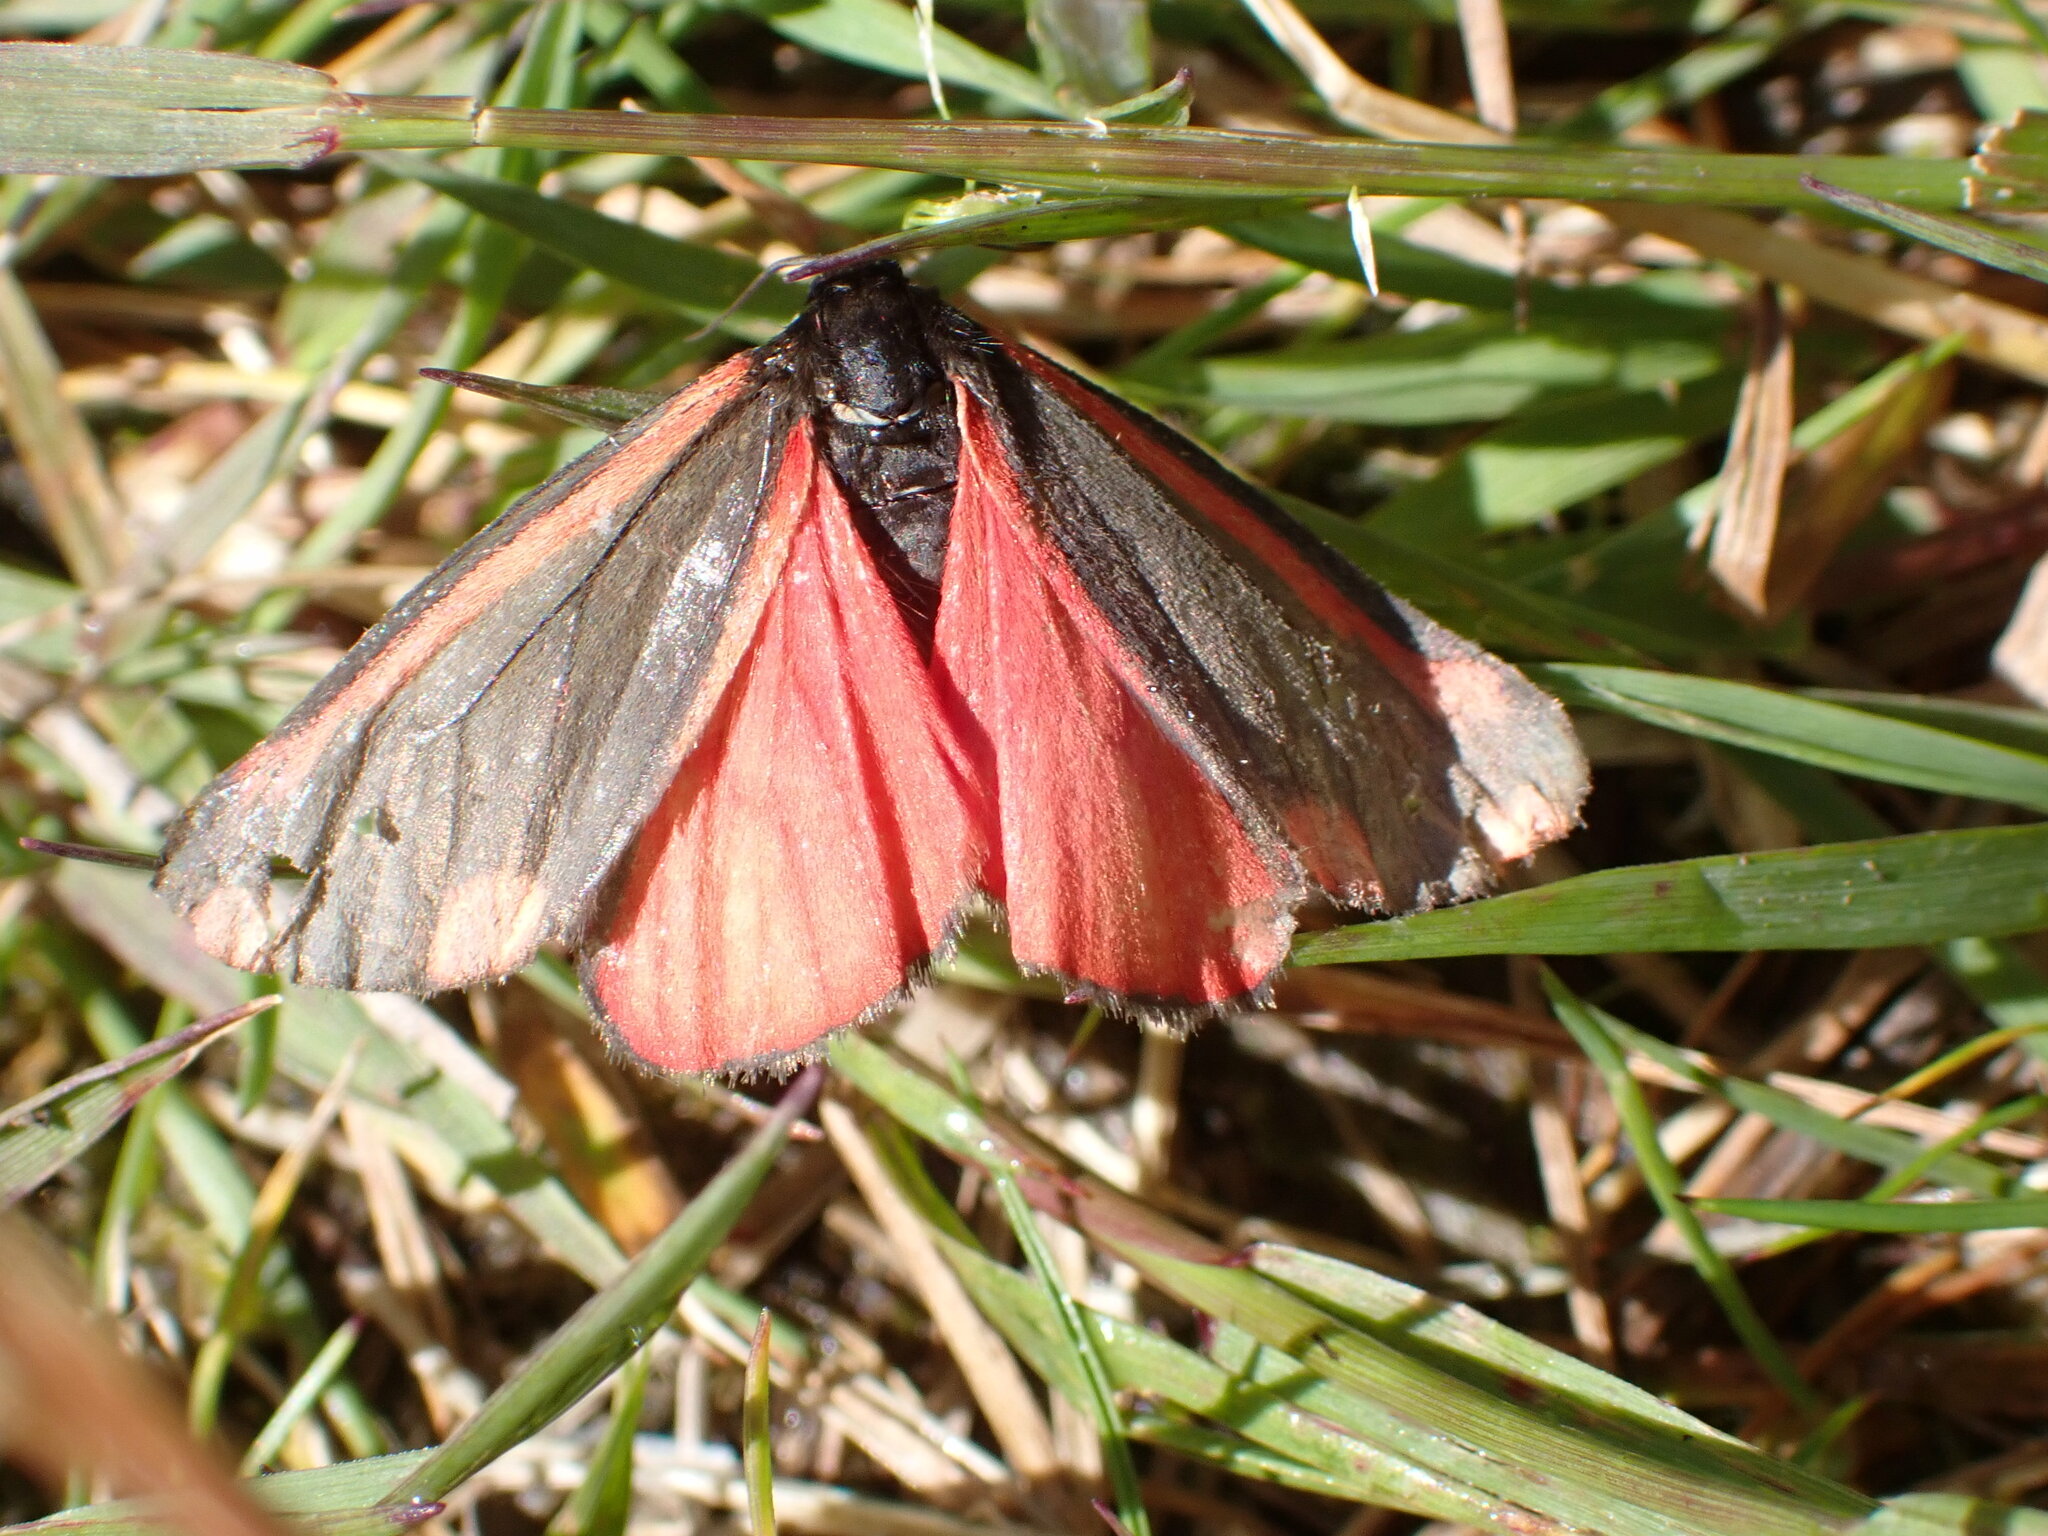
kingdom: Animalia
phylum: Arthropoda
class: Insecta
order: Lepidoptera
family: Erebidae
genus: Tyria
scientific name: Tyria jacobaeae
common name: Cinnabar
